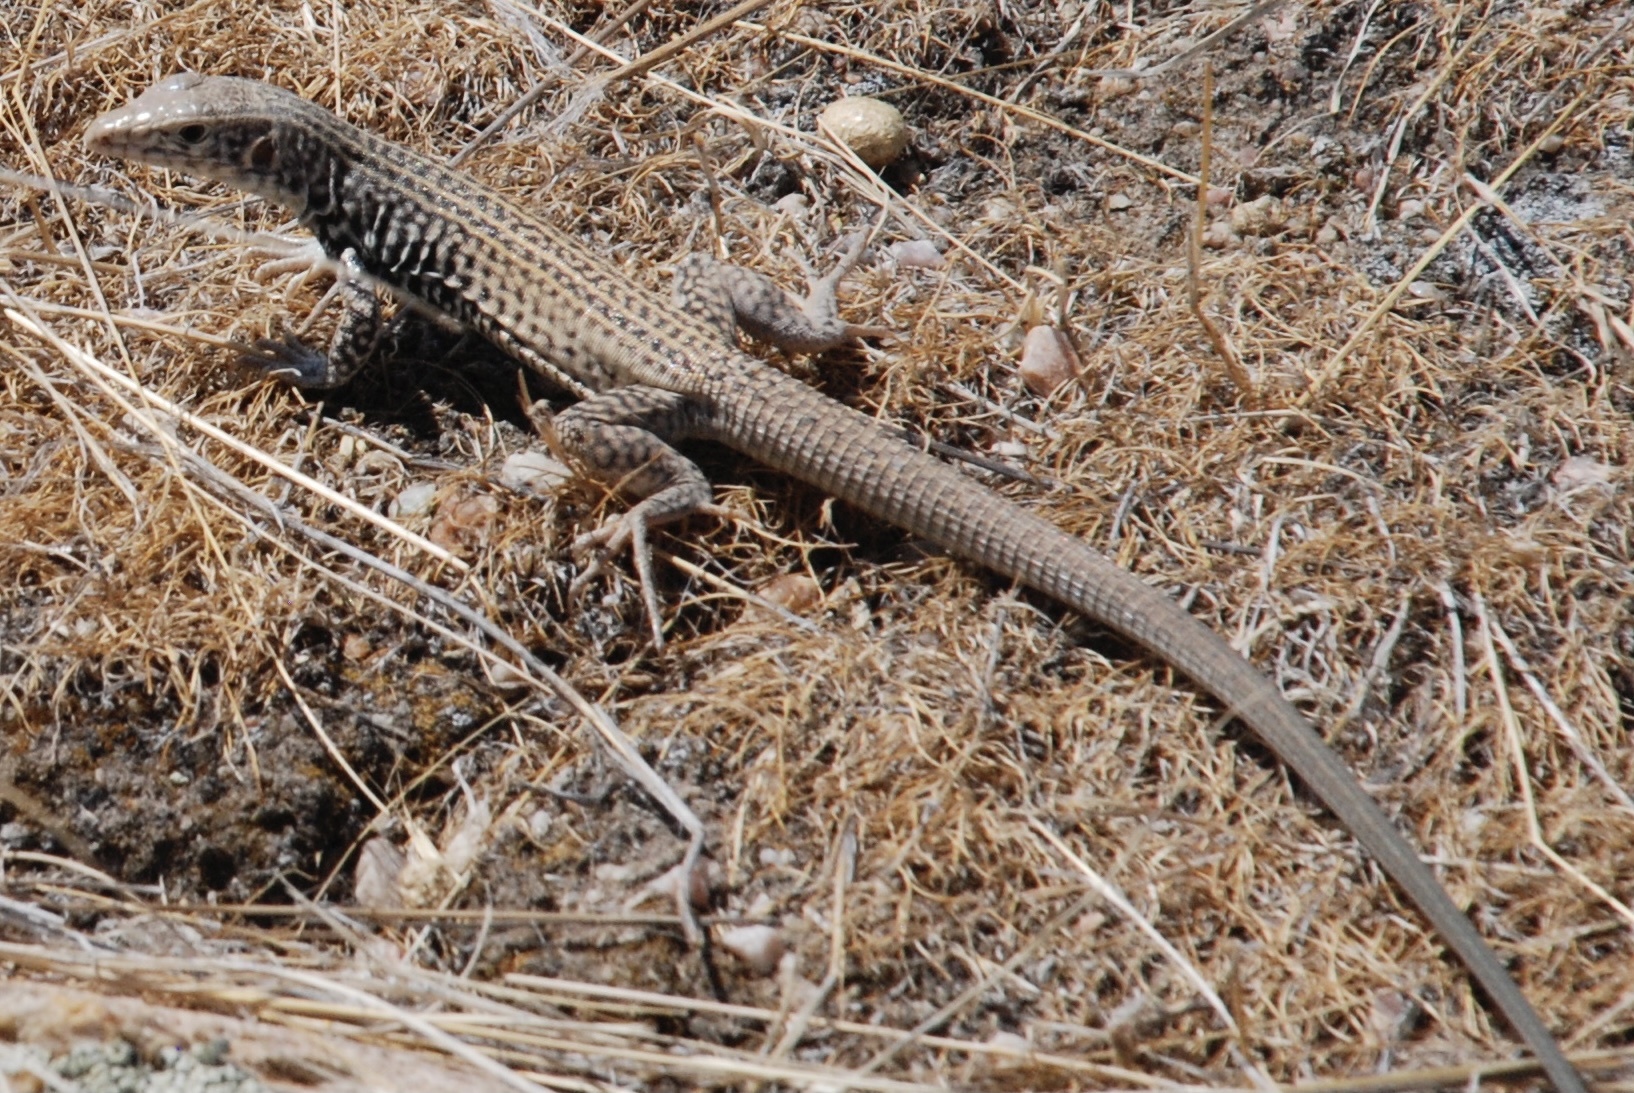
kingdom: Animalia
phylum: Chordata
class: Squamata
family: Teiidae
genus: Aspidoscelis
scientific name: Aspidoscelis tigris
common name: Tiger whiptail
